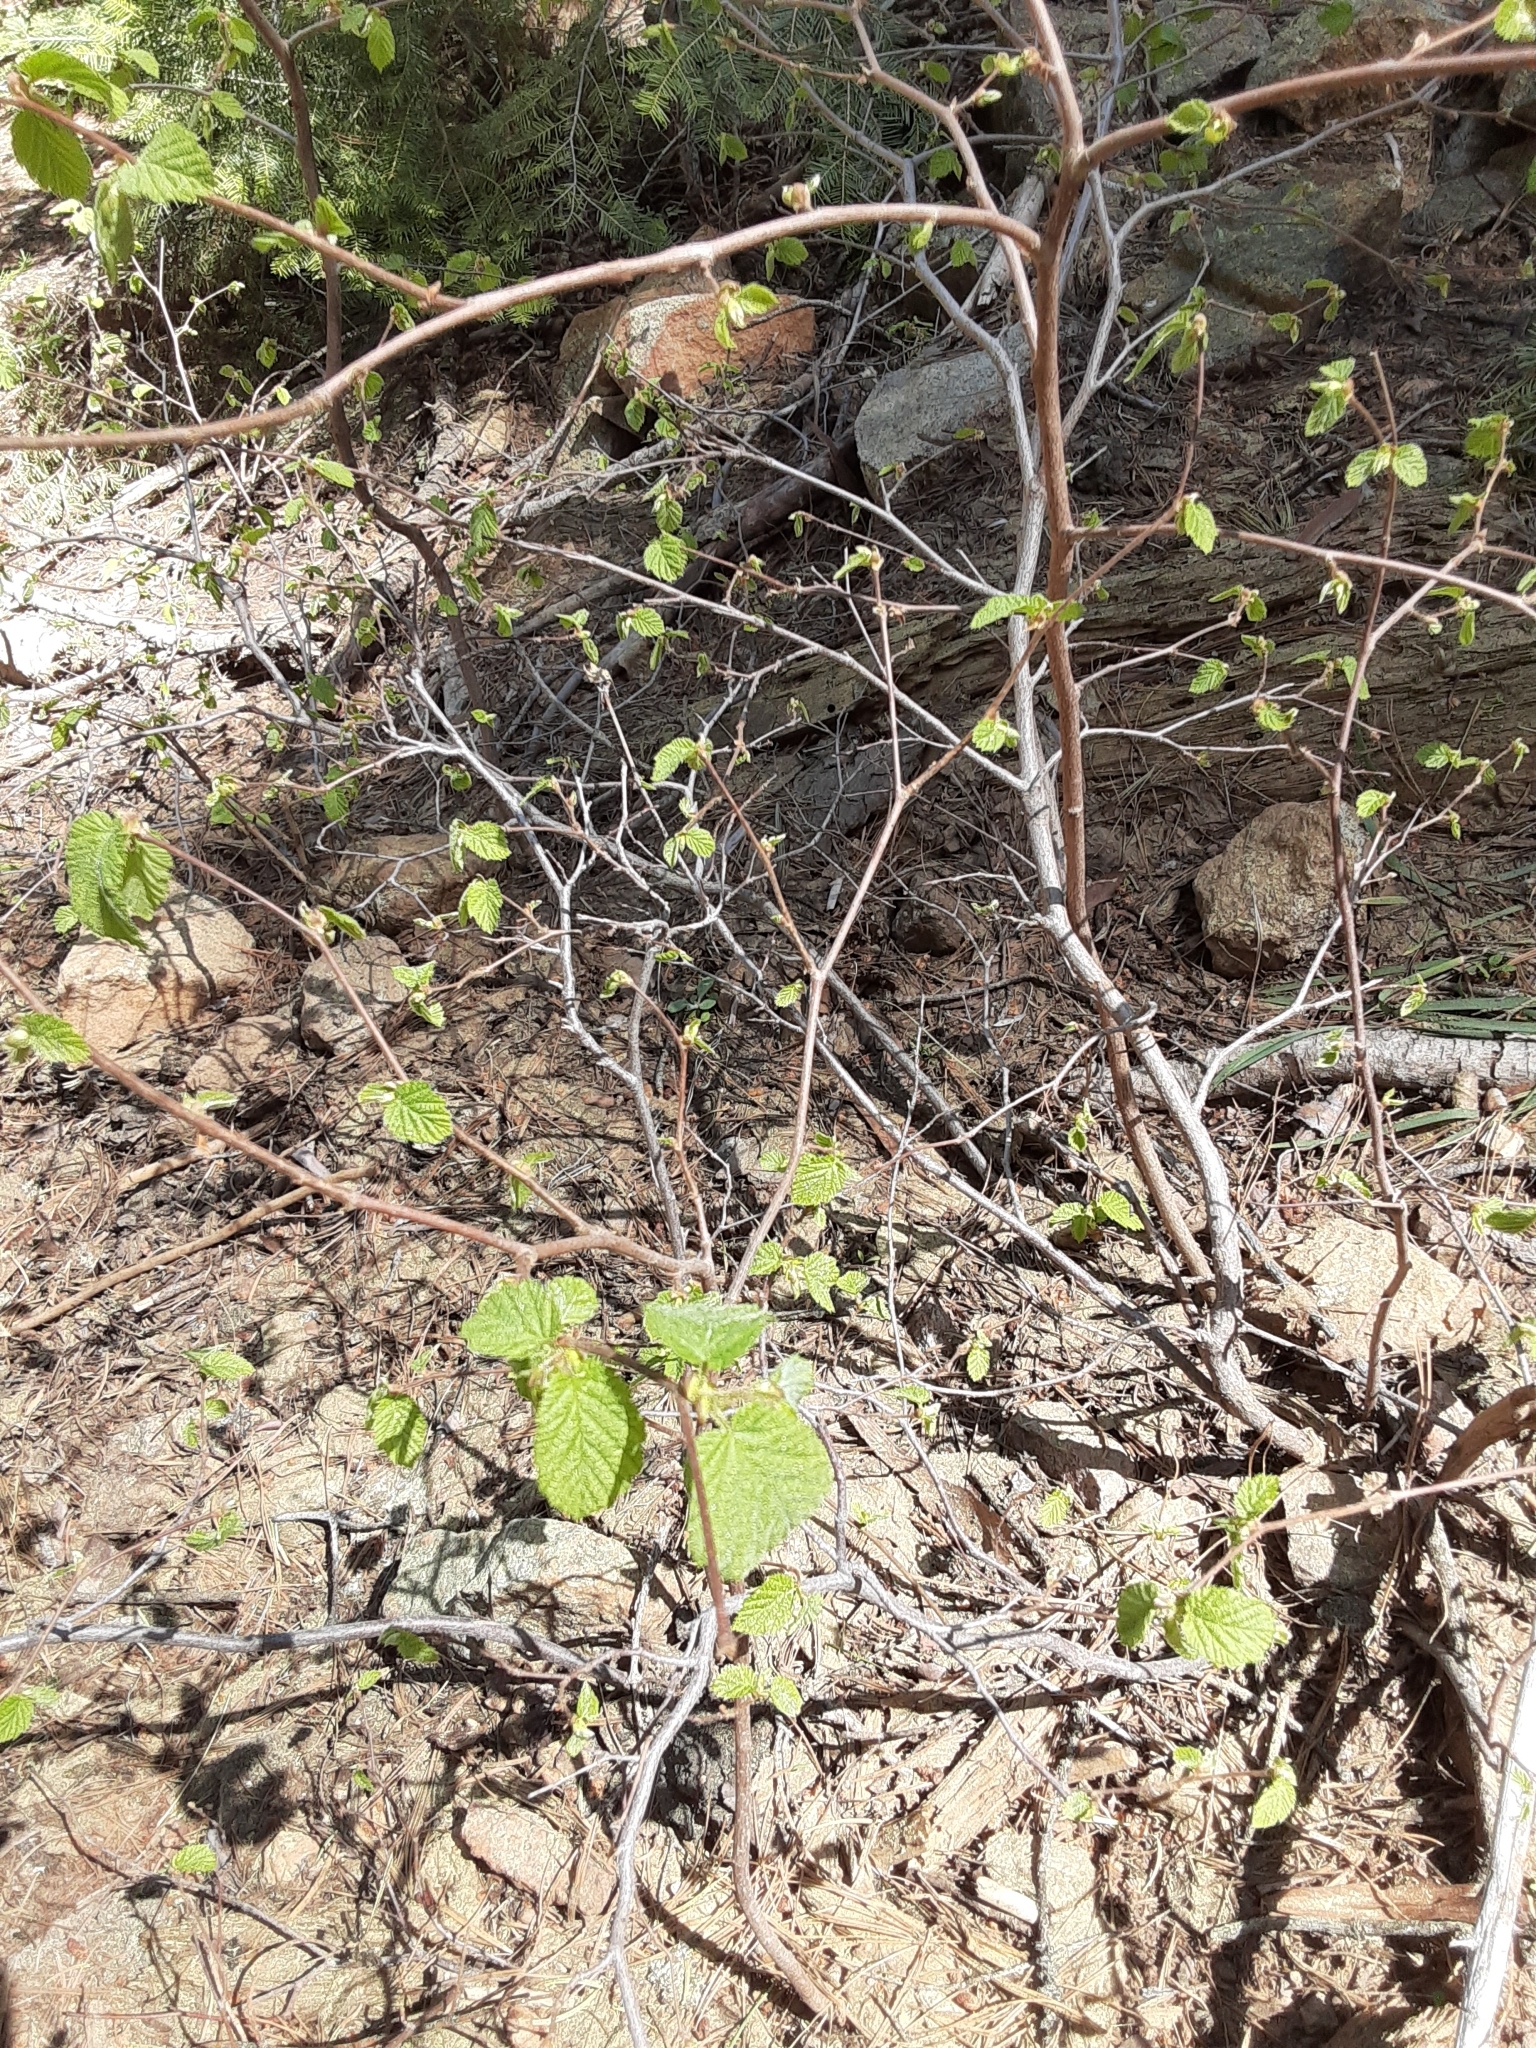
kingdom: Plantae
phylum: Tracheophyta
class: Magnoliopsida
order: Fagales
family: Betulaceae
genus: Corylus
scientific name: Corylus cornuta
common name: Beaked hazel
